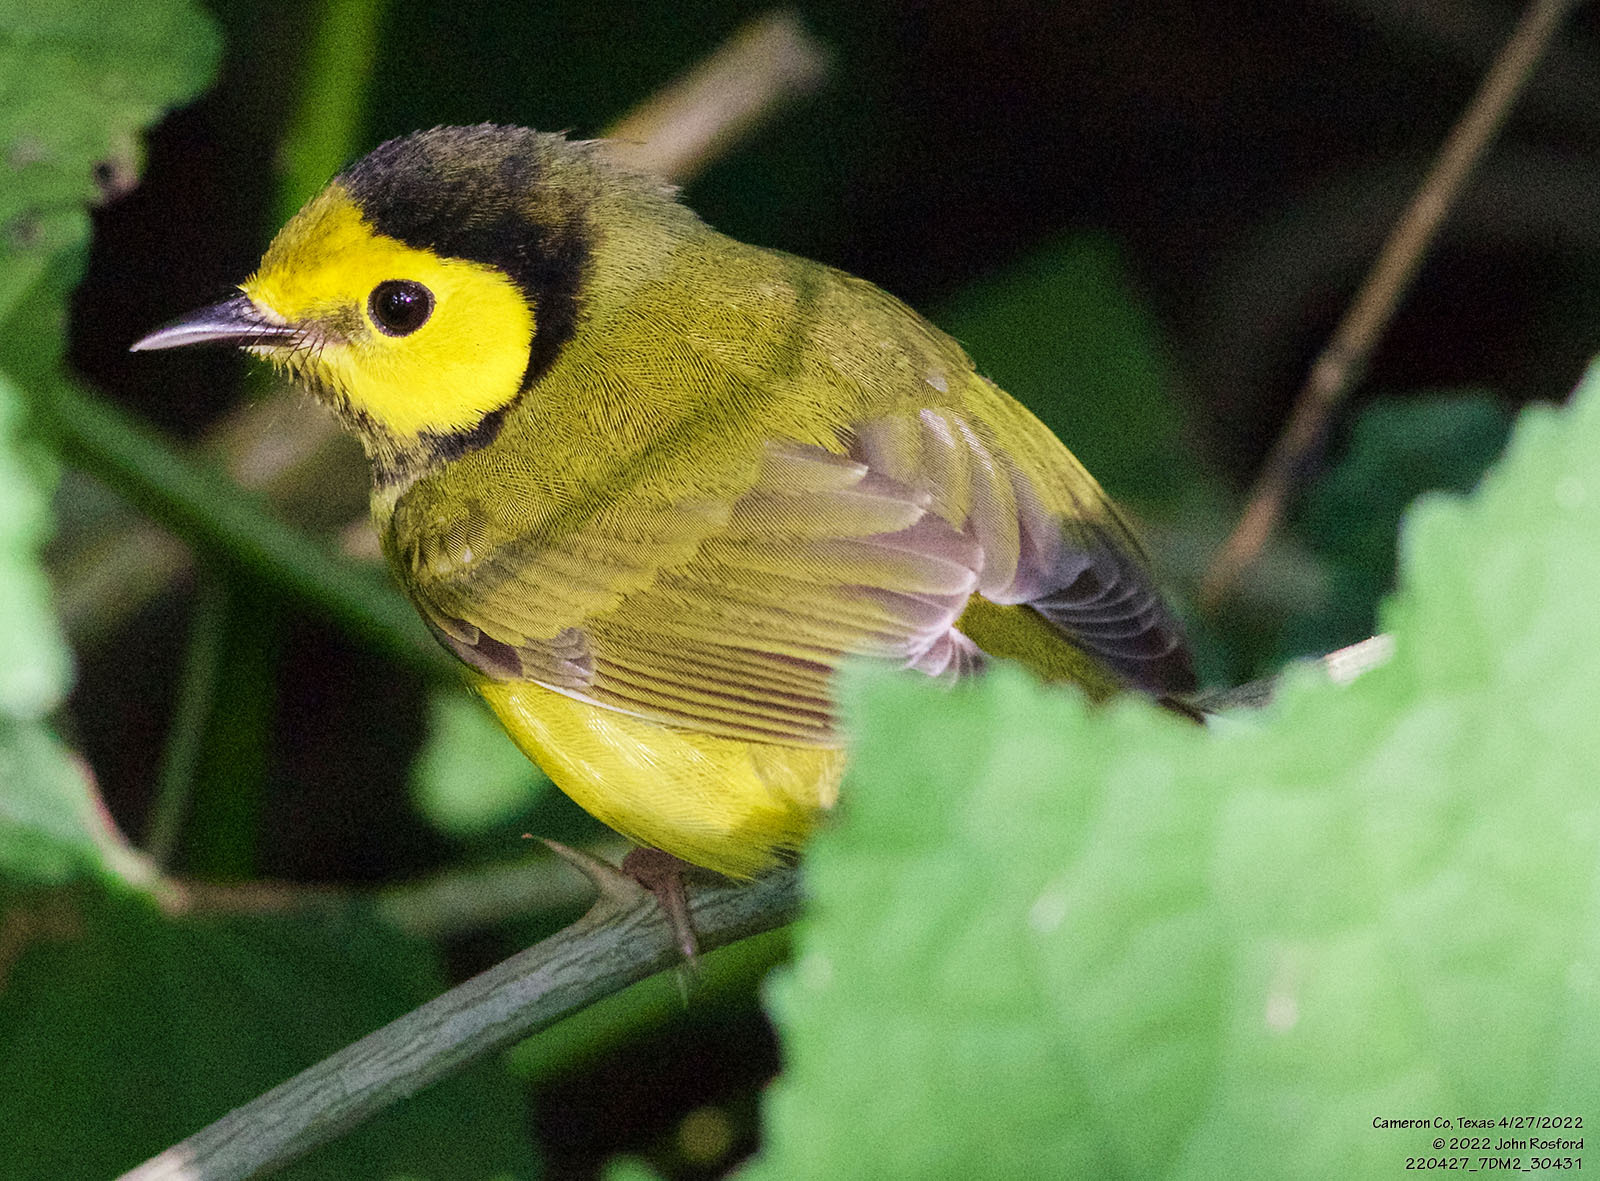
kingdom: Animalia
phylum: Chordata
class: Aves
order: Passeriformes
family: Parulidae
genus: Setophaga
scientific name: Setophaga citrina
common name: Hooded warbler
